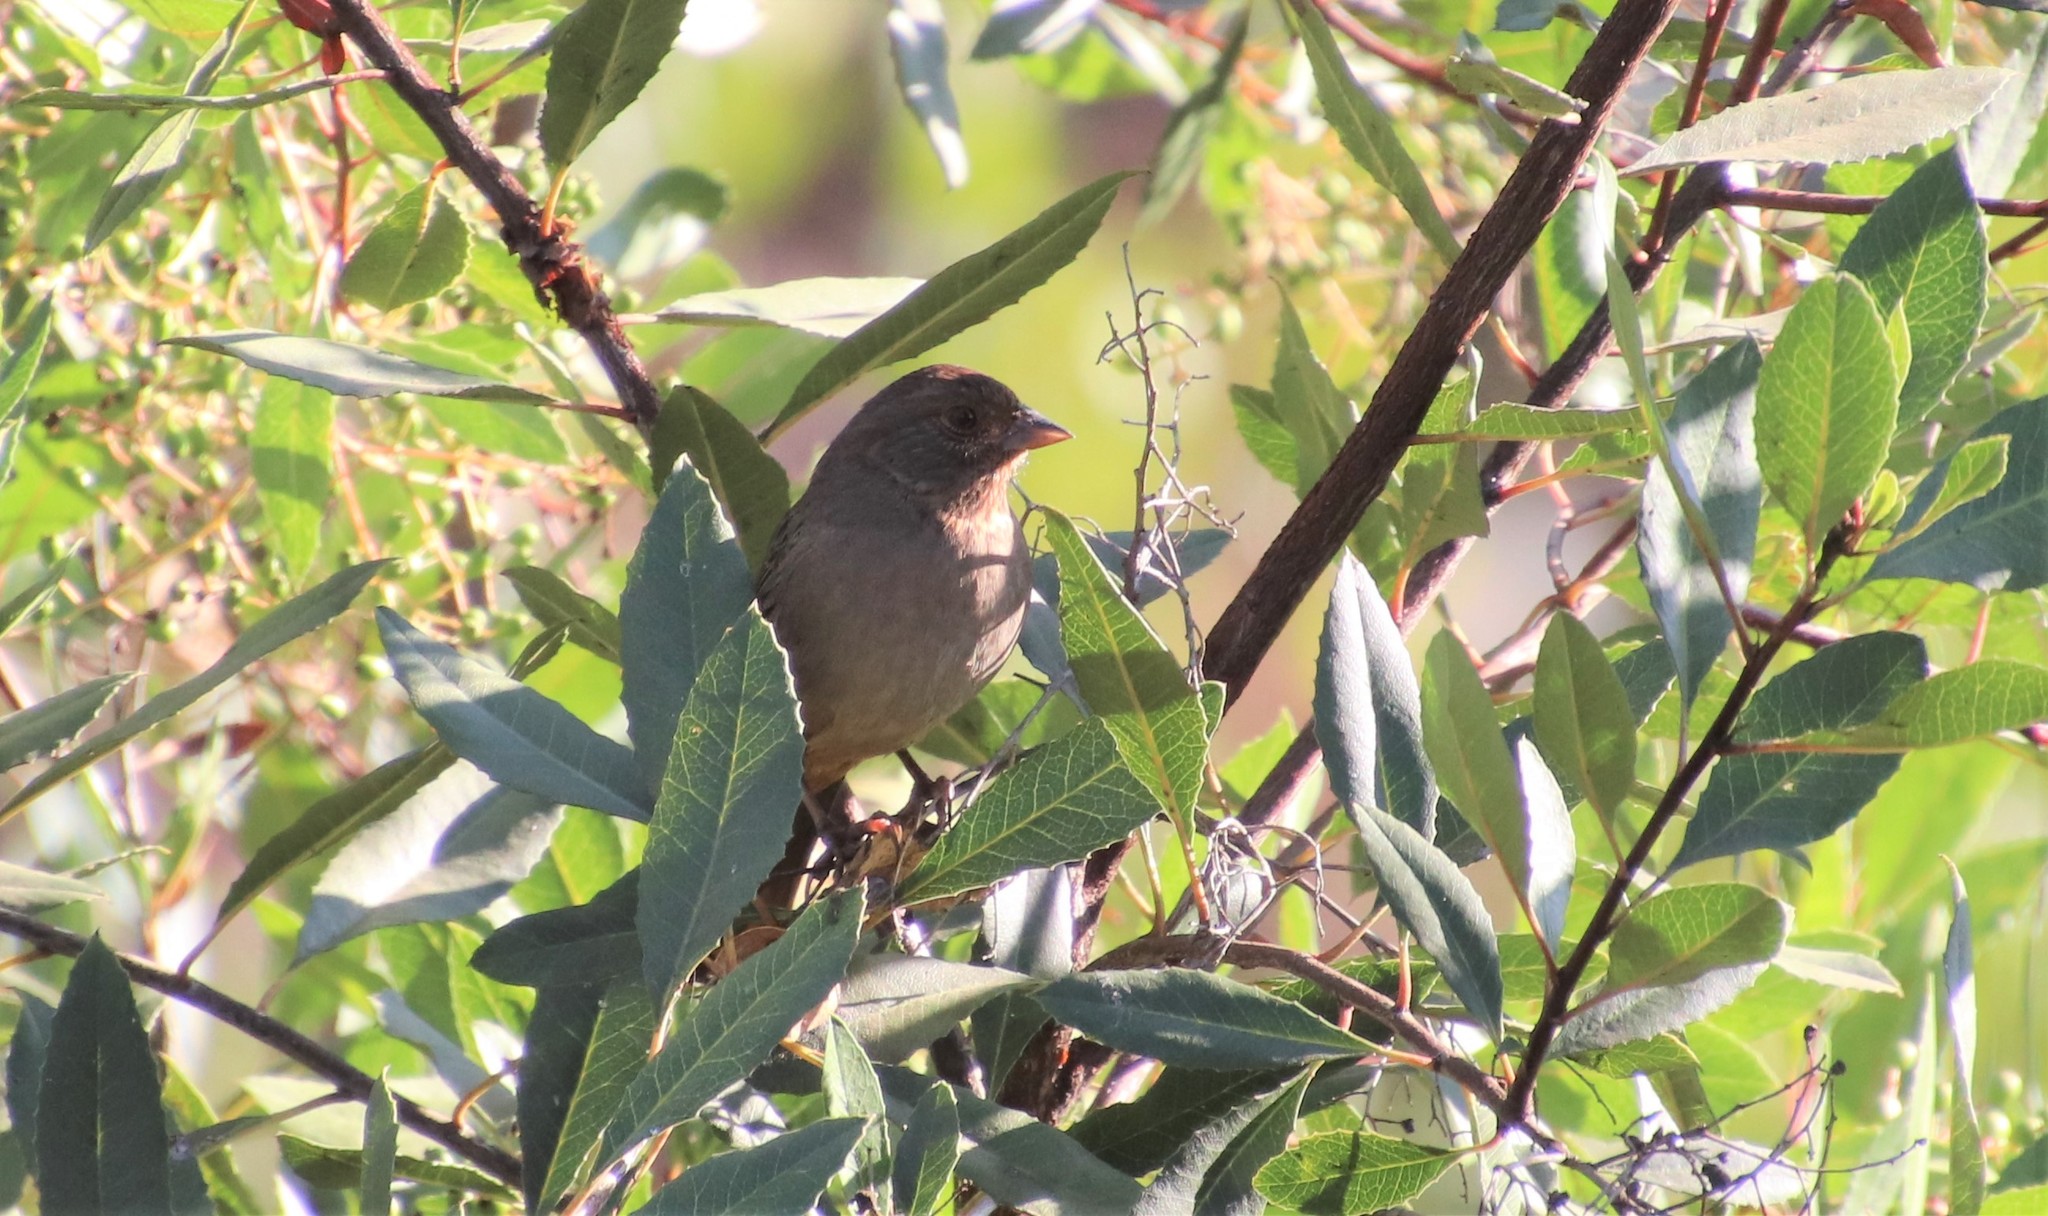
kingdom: Animalia
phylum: Chordata
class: Aves
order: Passeriformes
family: Passerellidae
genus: Melozone
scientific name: Melozone crissalis
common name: California towhee
